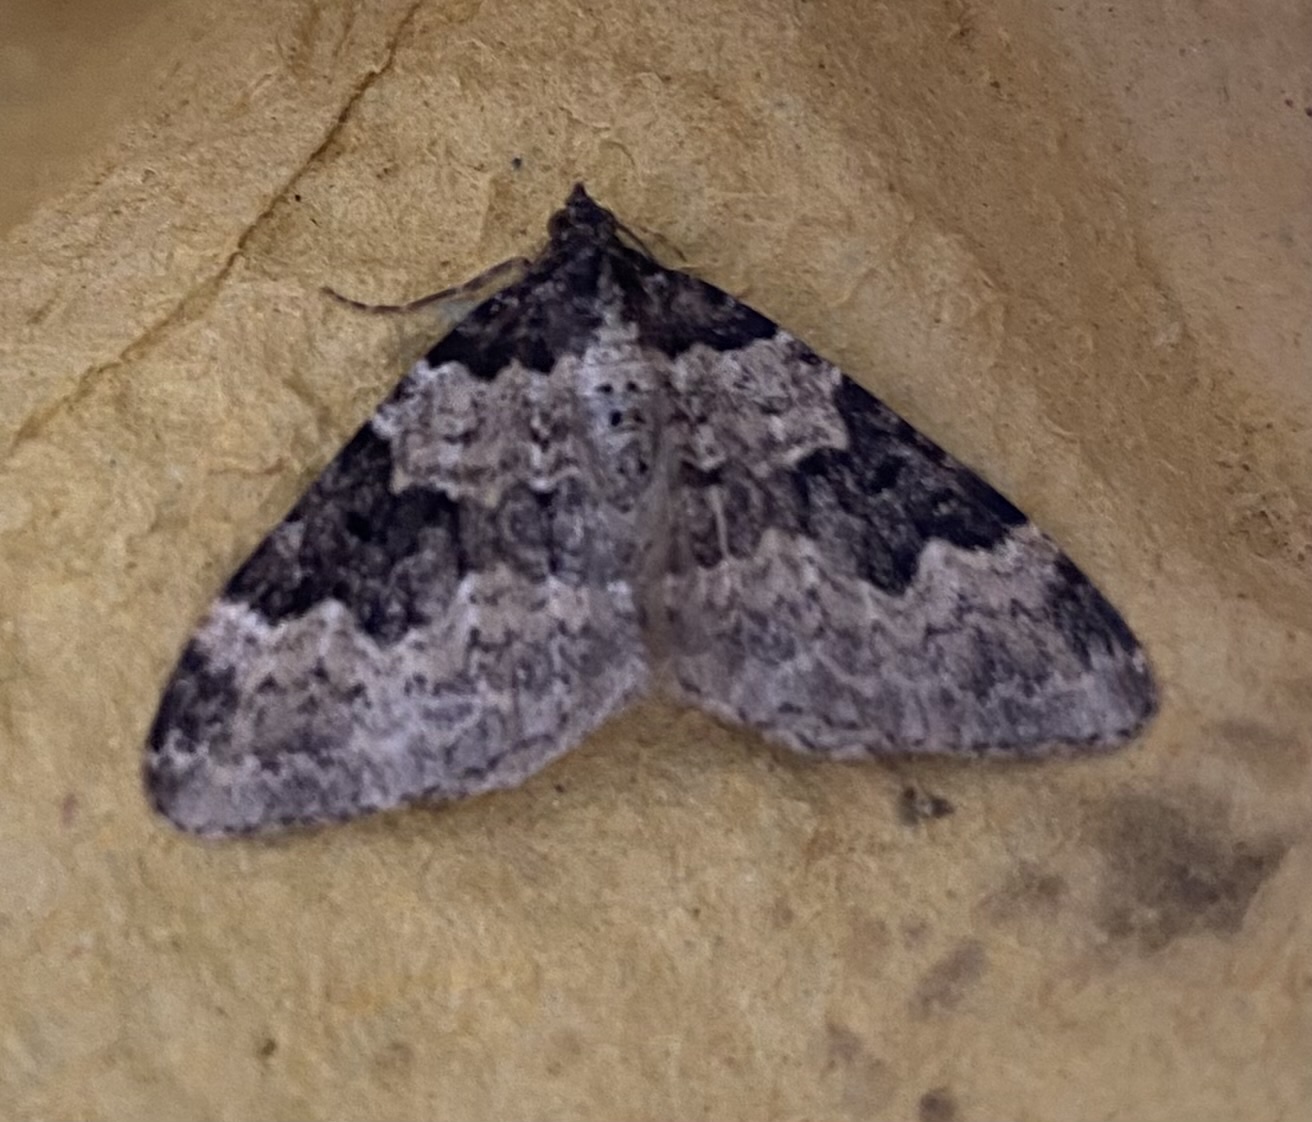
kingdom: Animalia
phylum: Arthropoda
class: Insecta
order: Lepidoptera
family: Geometridae
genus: Xanthorhoe
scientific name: Xanthorhoe fluctuata
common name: Garden carpet
